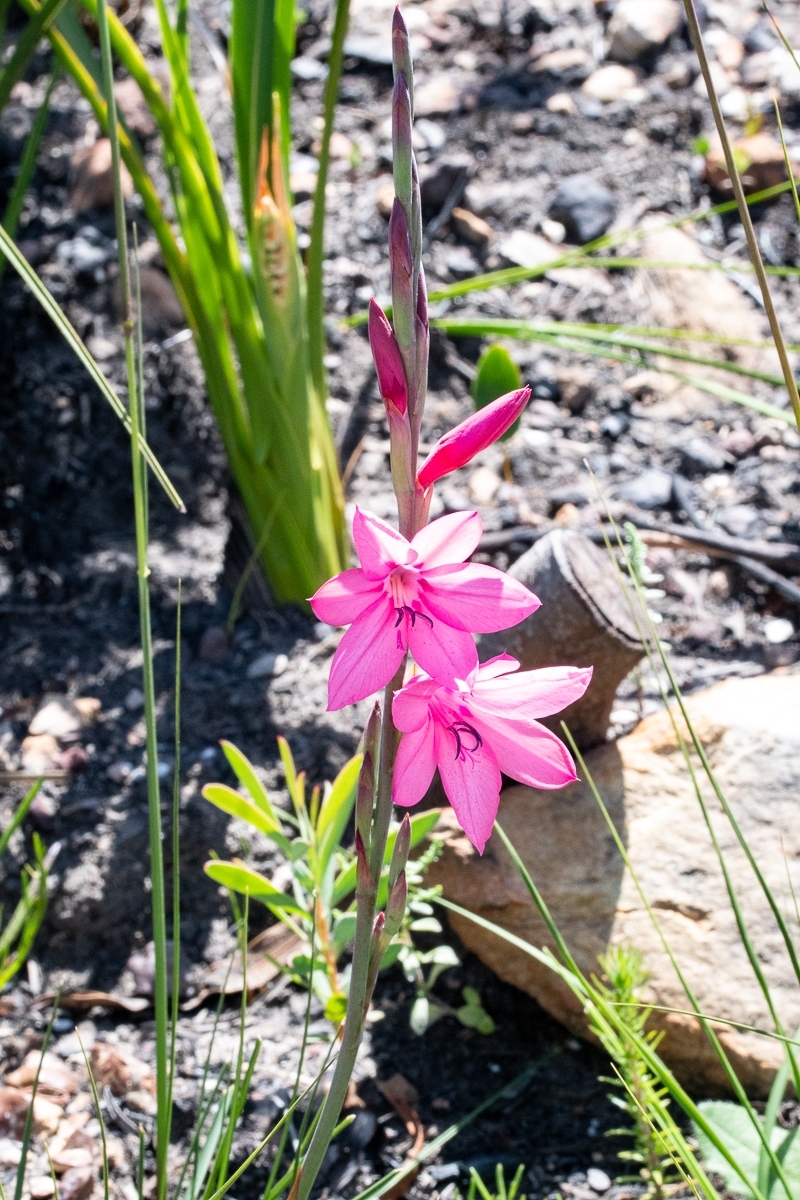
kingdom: Plantae
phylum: Tracheophyta
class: Liliopsida
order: Asparagales
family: Iridaceae
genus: Watsonia
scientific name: Watsonia borbonica
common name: Bugle-lily
